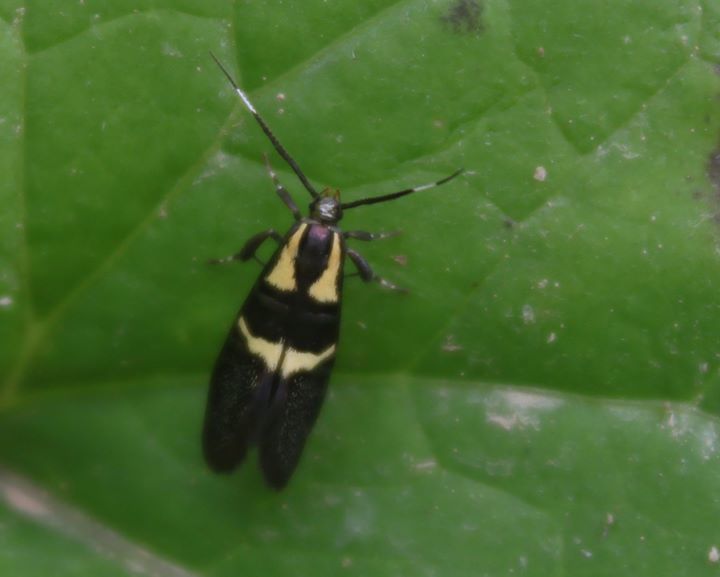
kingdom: Animalia
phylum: Arthropoda
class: Insecta
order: Lepidoptera
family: Oecophoridae
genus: Dafa
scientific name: Dafa oliviella
